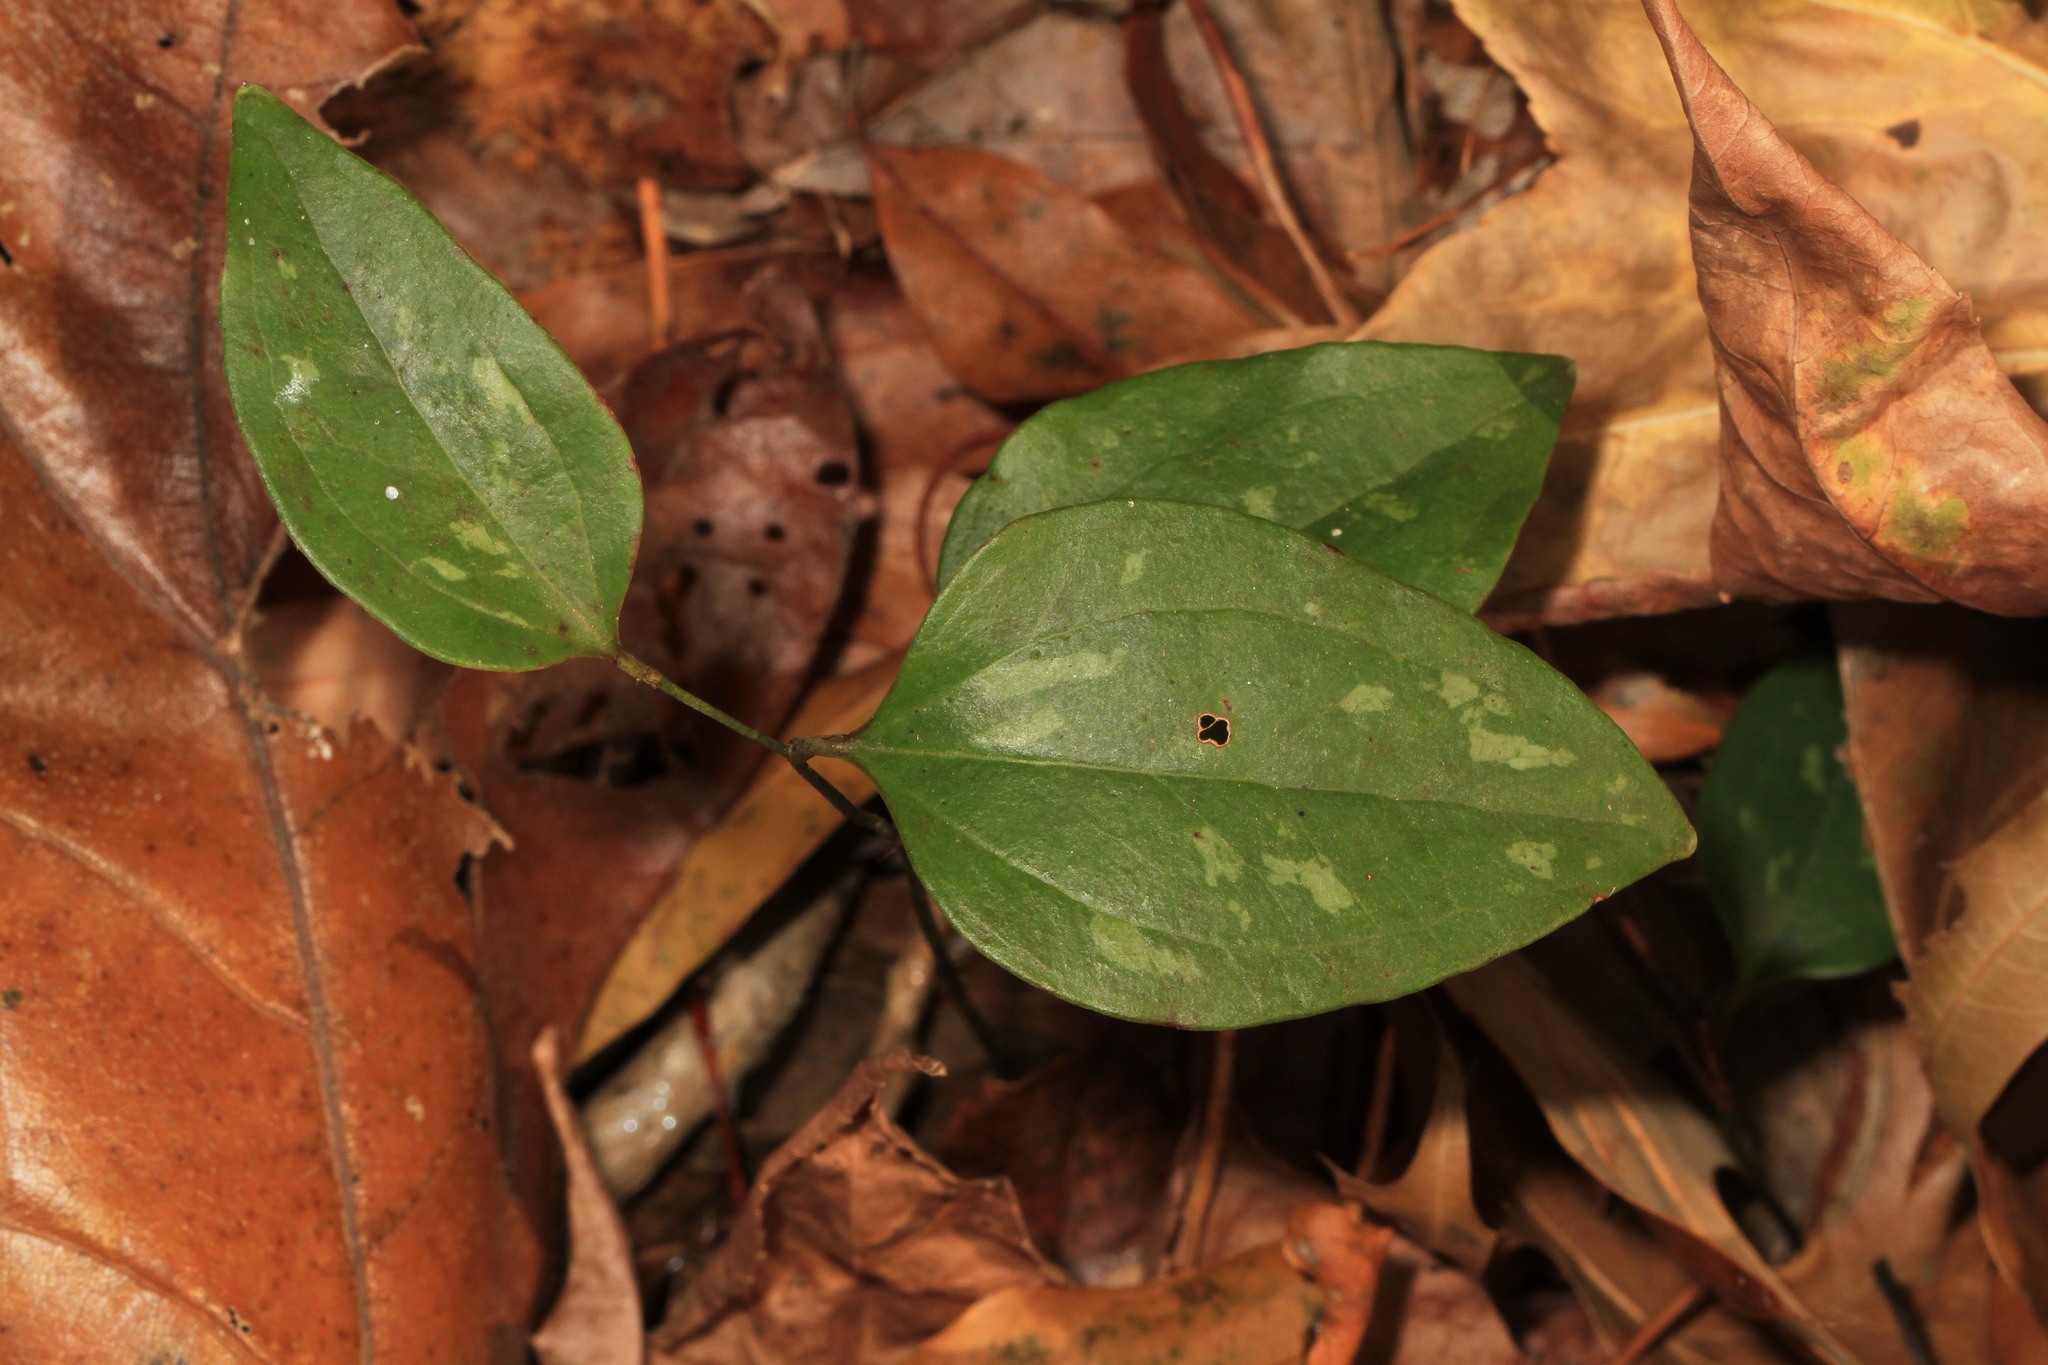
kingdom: Plantae
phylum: Tracheophyta
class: Liliopsida
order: Liliales
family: Smilacaceae
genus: Smilax
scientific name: Smilax glauca
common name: Cat greenbrier
